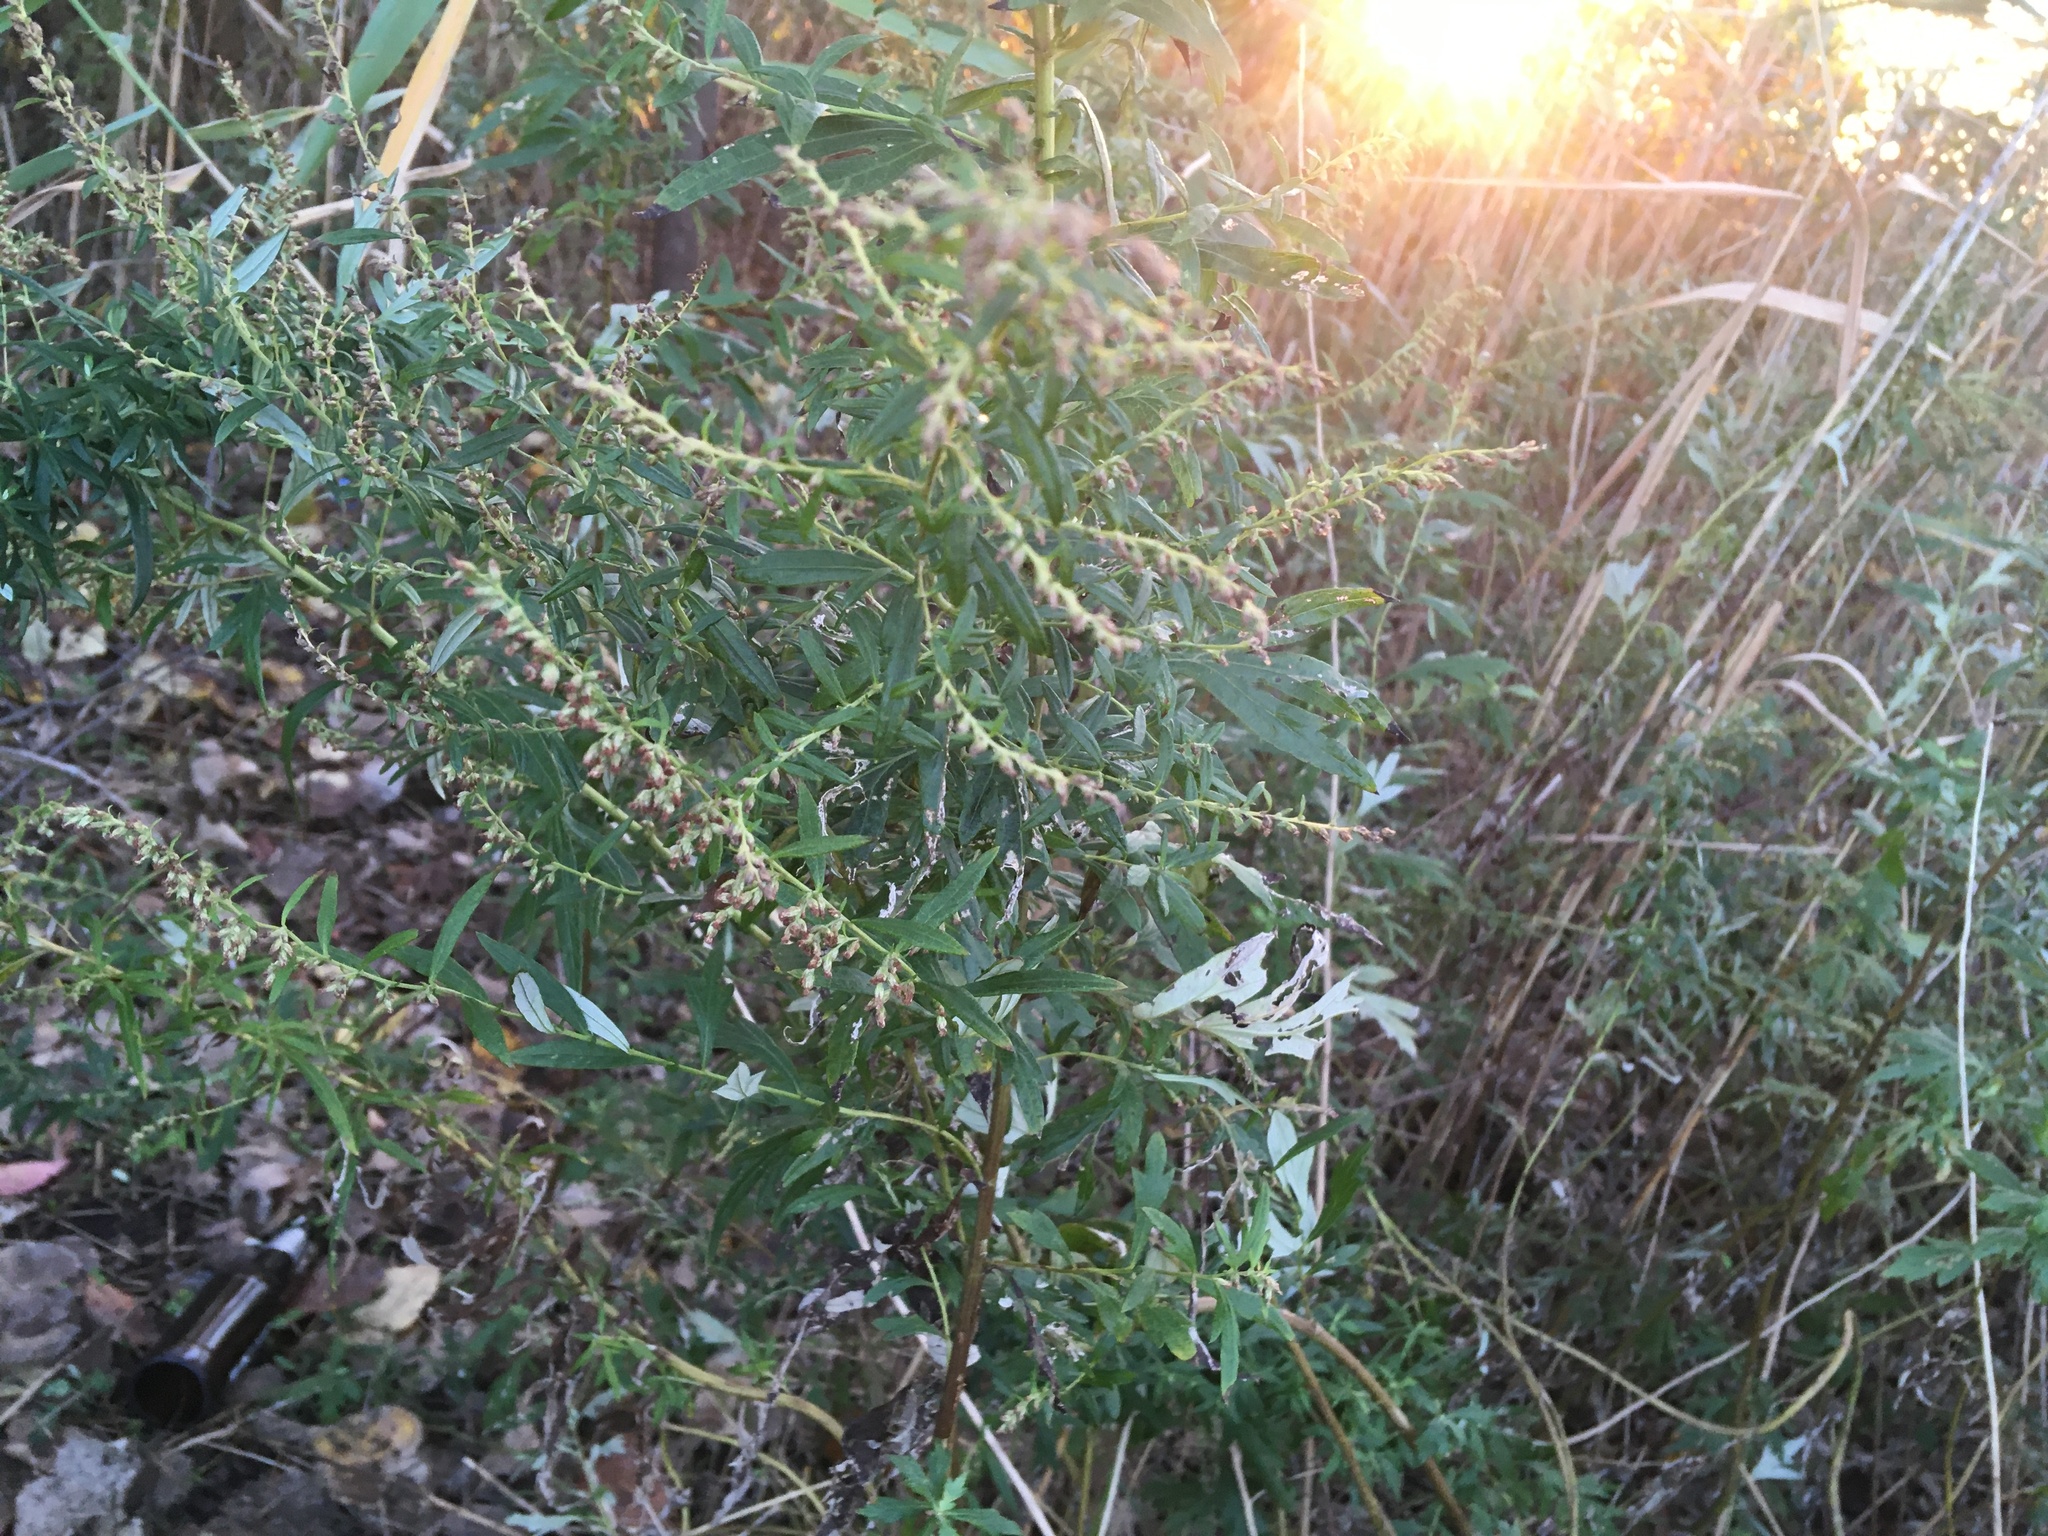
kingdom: Plantae
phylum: Tracheophyta
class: Magnoliopsida
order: Asterales
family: Asteraceae
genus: Artemisia
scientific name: Artemisia vulgaris
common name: Mugwort
